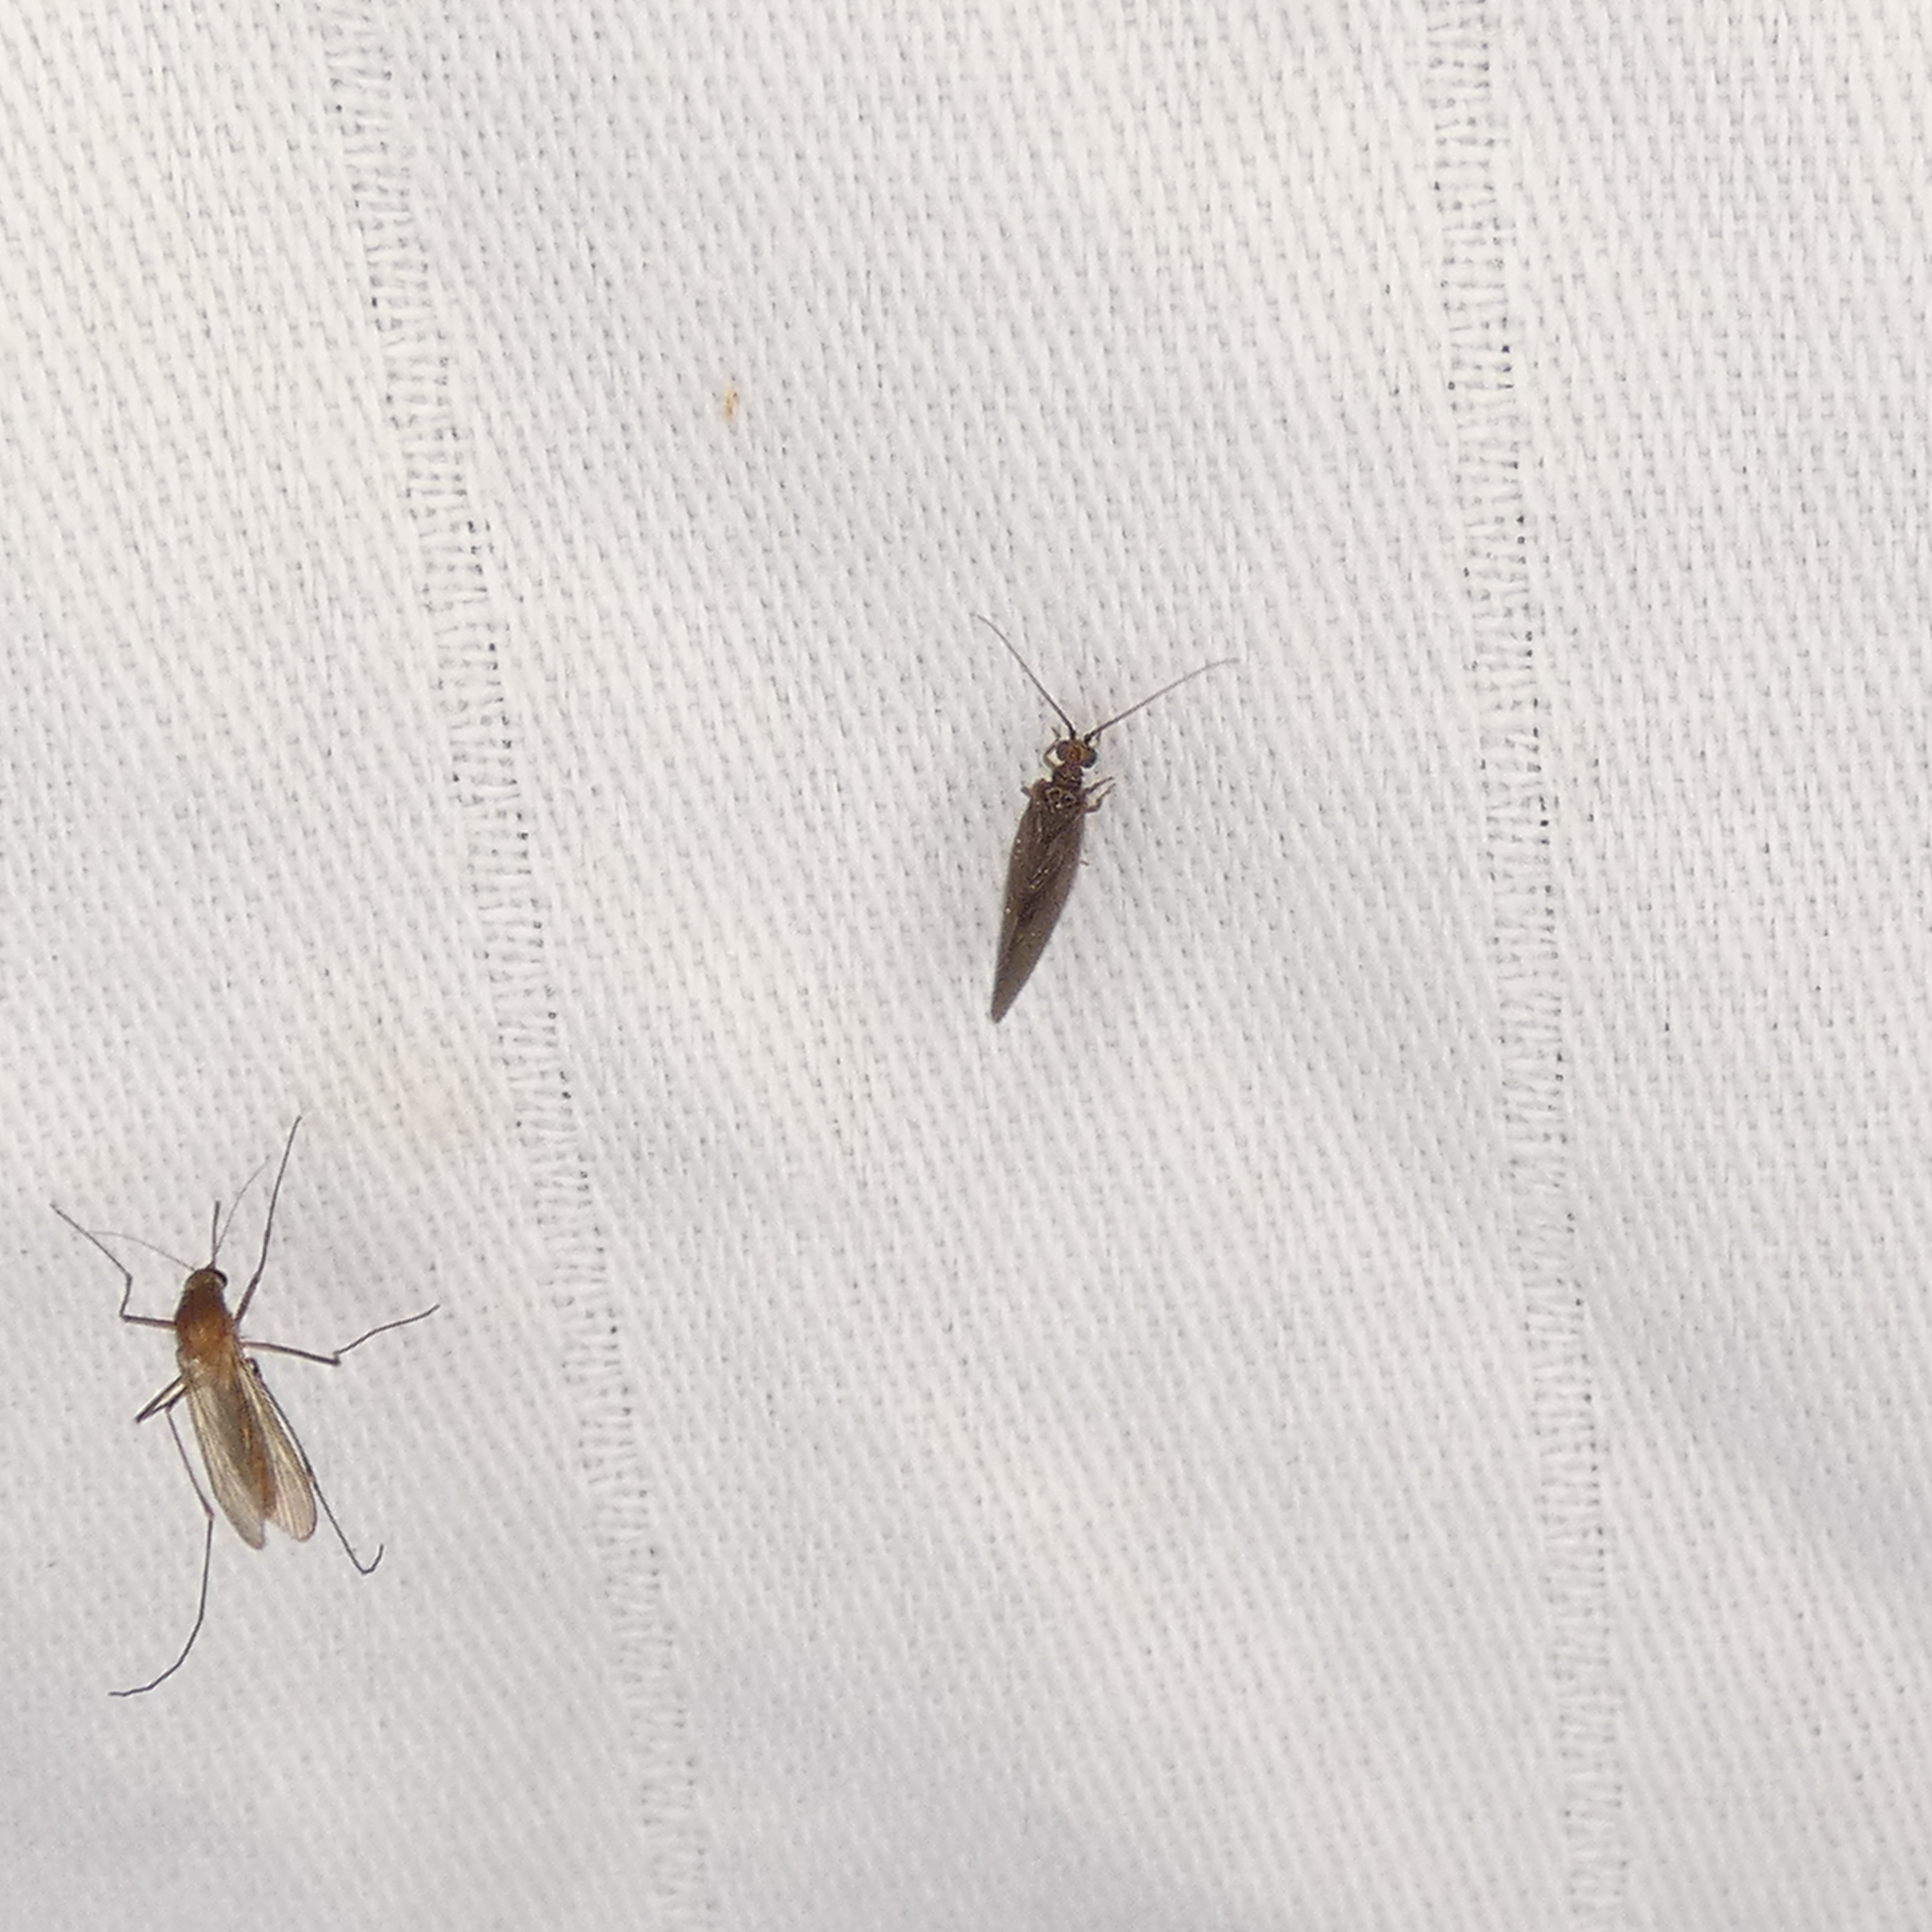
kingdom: Animalia
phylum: Arthropoda
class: Insecta
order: Neuroptera
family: Sisyridae
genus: Sisyra
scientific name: Sisyra vicaria
